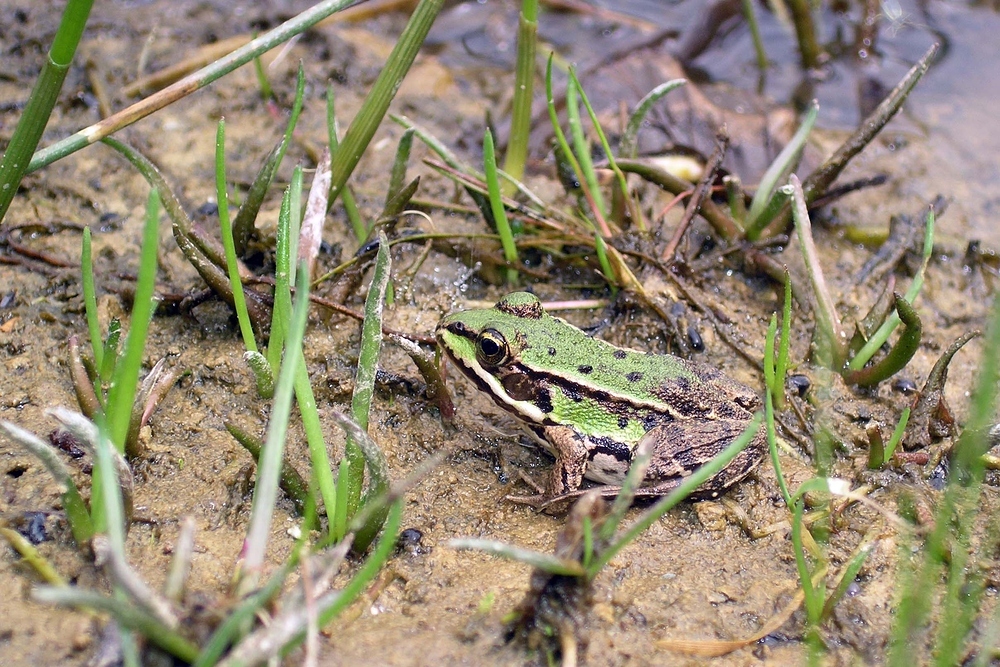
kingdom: Animalia
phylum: Chordata
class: Amphibia
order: Anura
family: Ranidae
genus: Pelophylax
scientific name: Pelophylax
